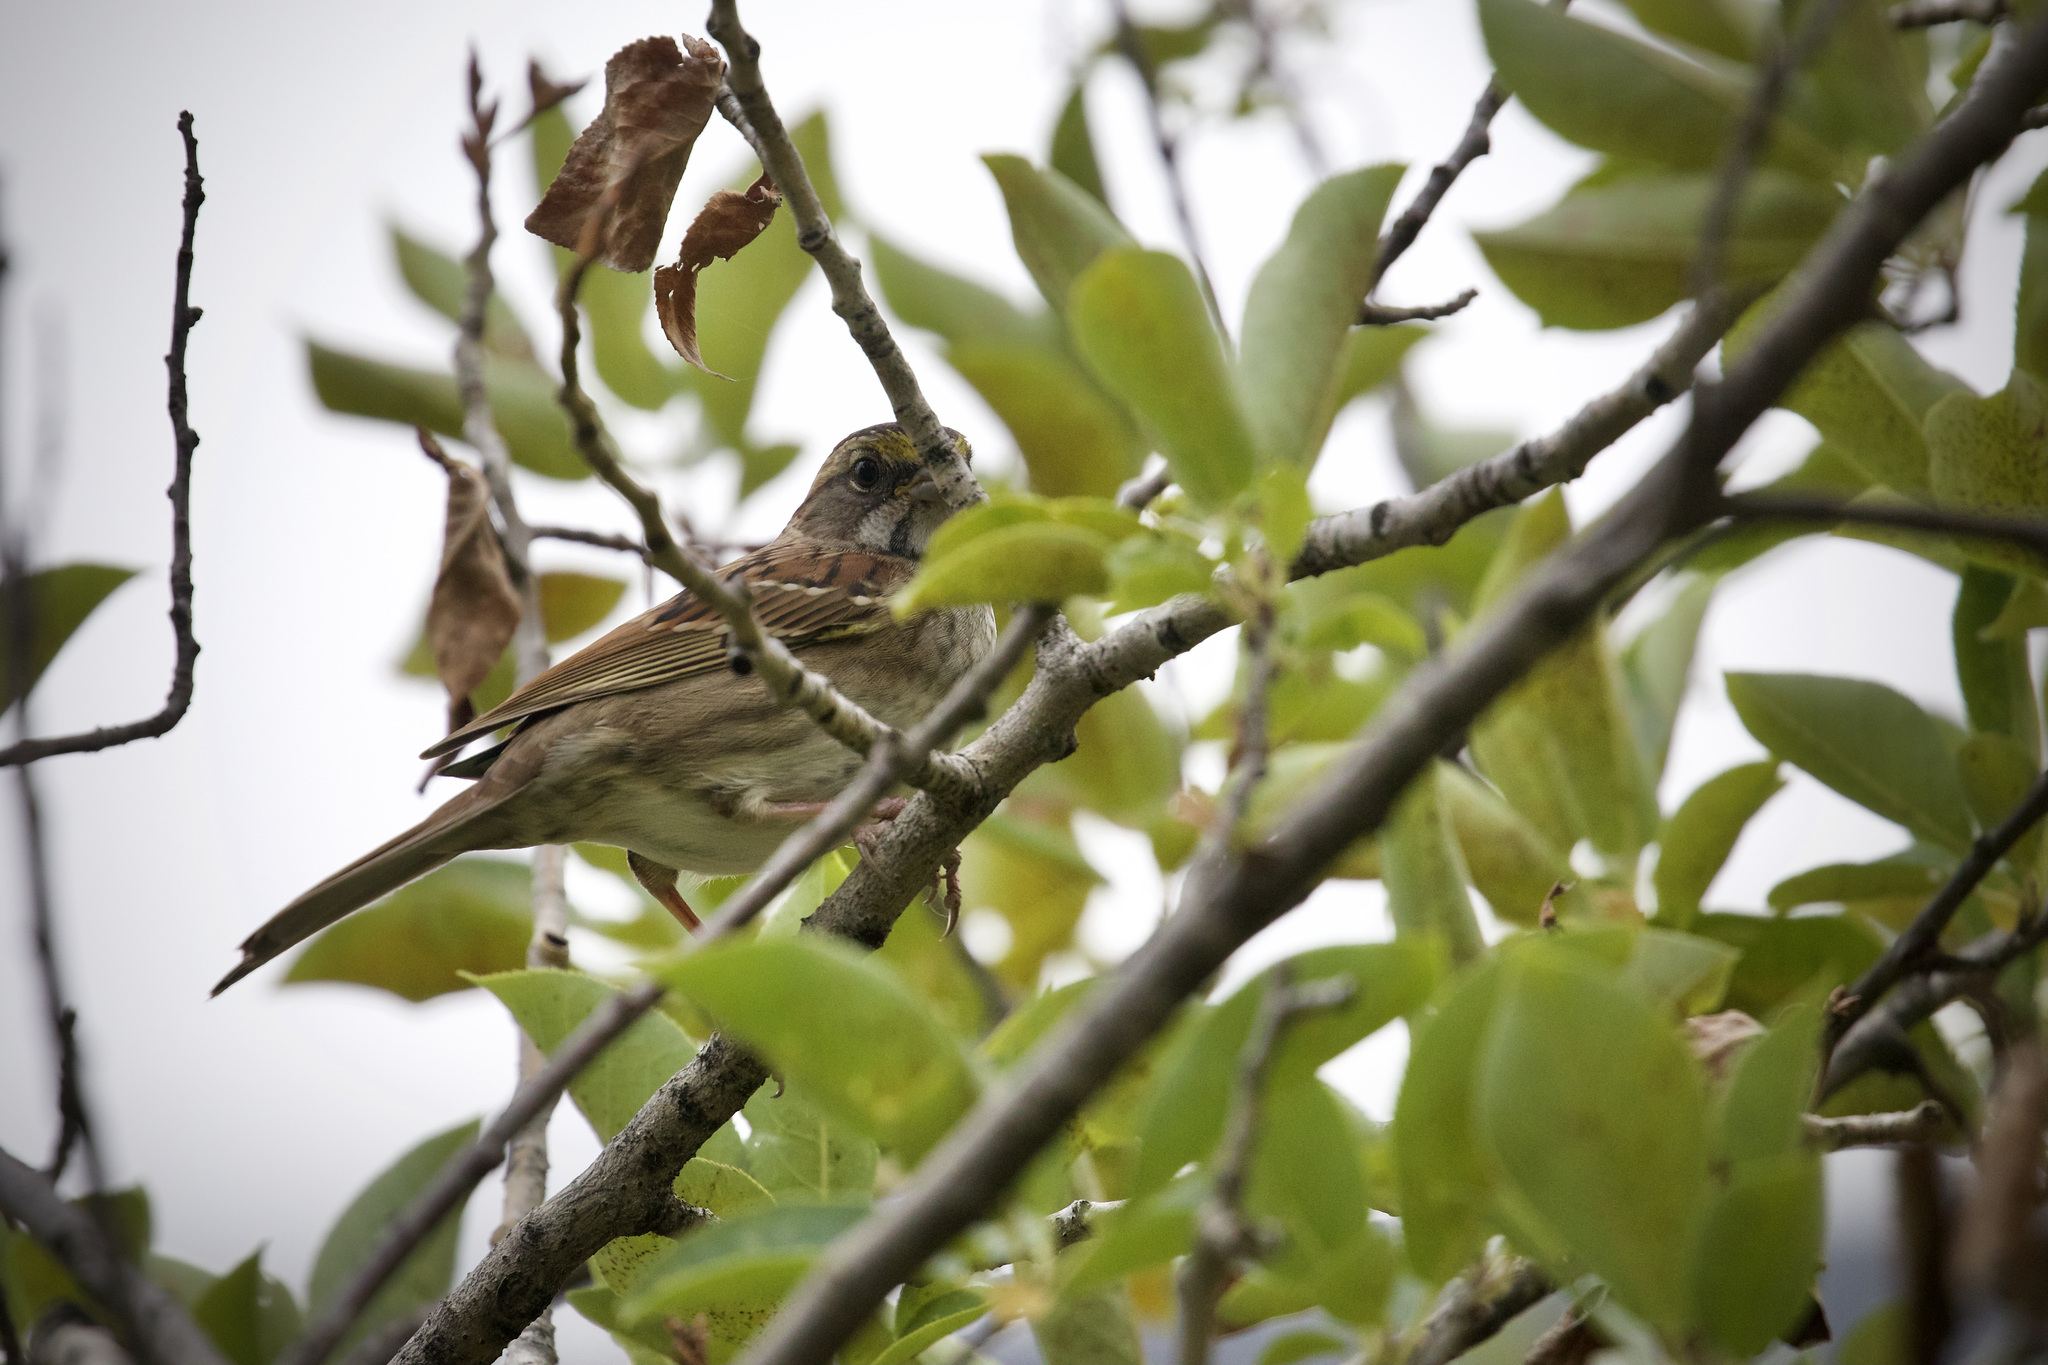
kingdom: Animalia
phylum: Chordata
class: Aves
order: Passeriformes
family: Passerellidae
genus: Zonotrichia
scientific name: Zonotrichia albicollis
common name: White-throated sparrow
